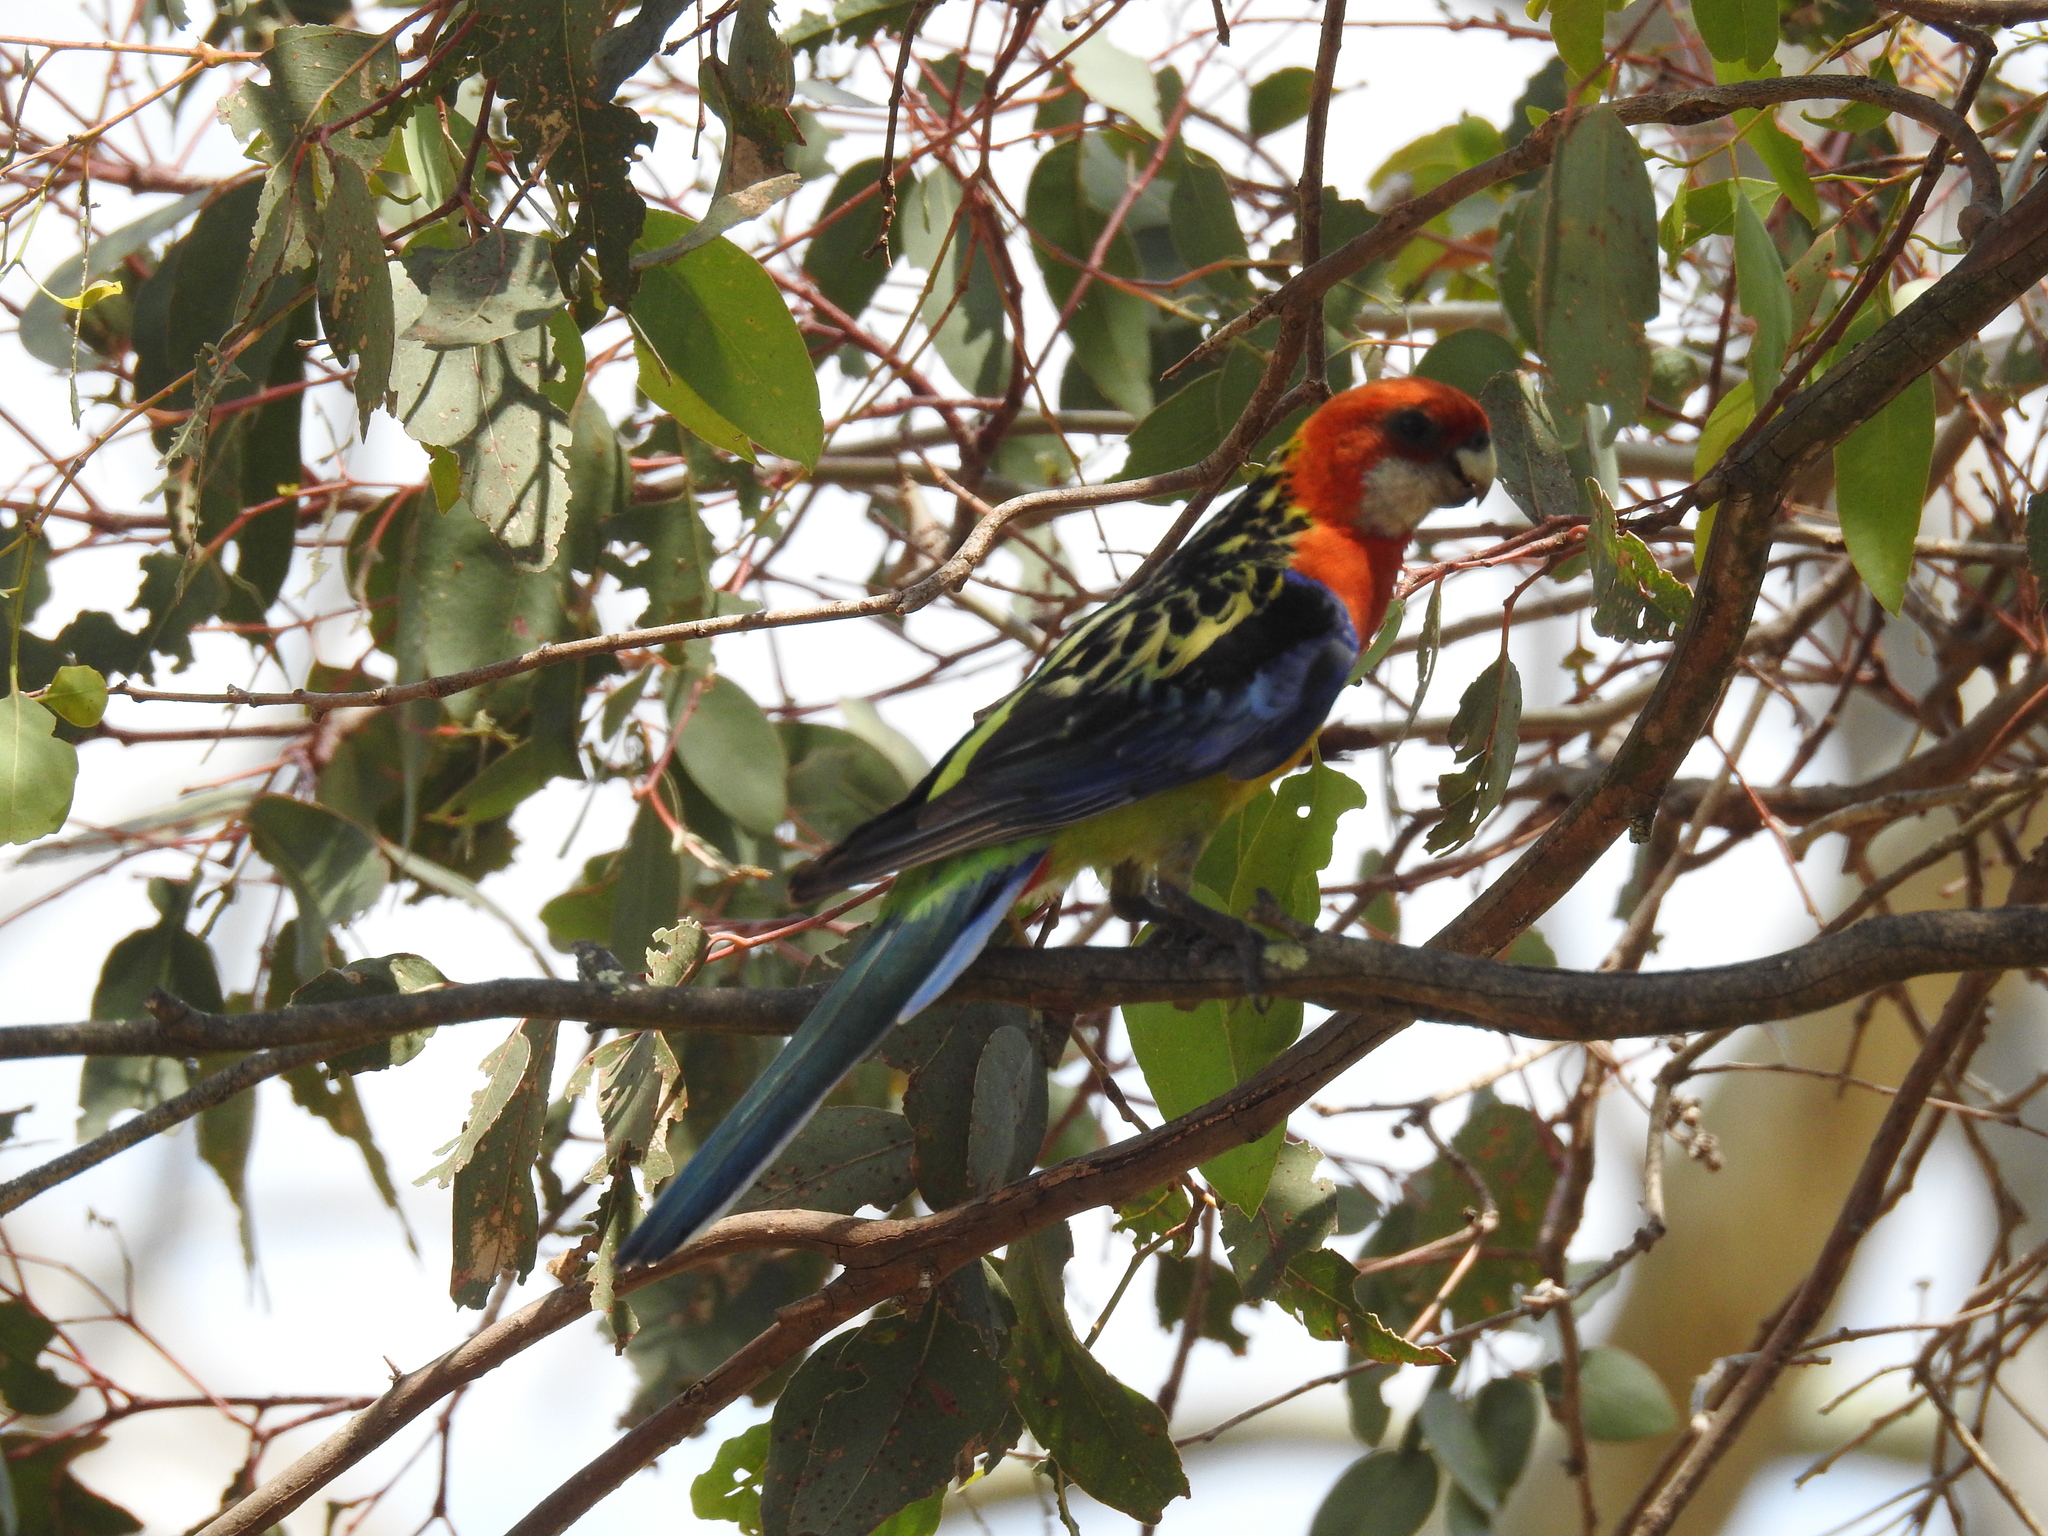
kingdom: Animalia
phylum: Chordata
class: Aves
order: Psittaciformes
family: Psittacidae
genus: Platycercus
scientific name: Platycercus eximius
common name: Eastern rosella
